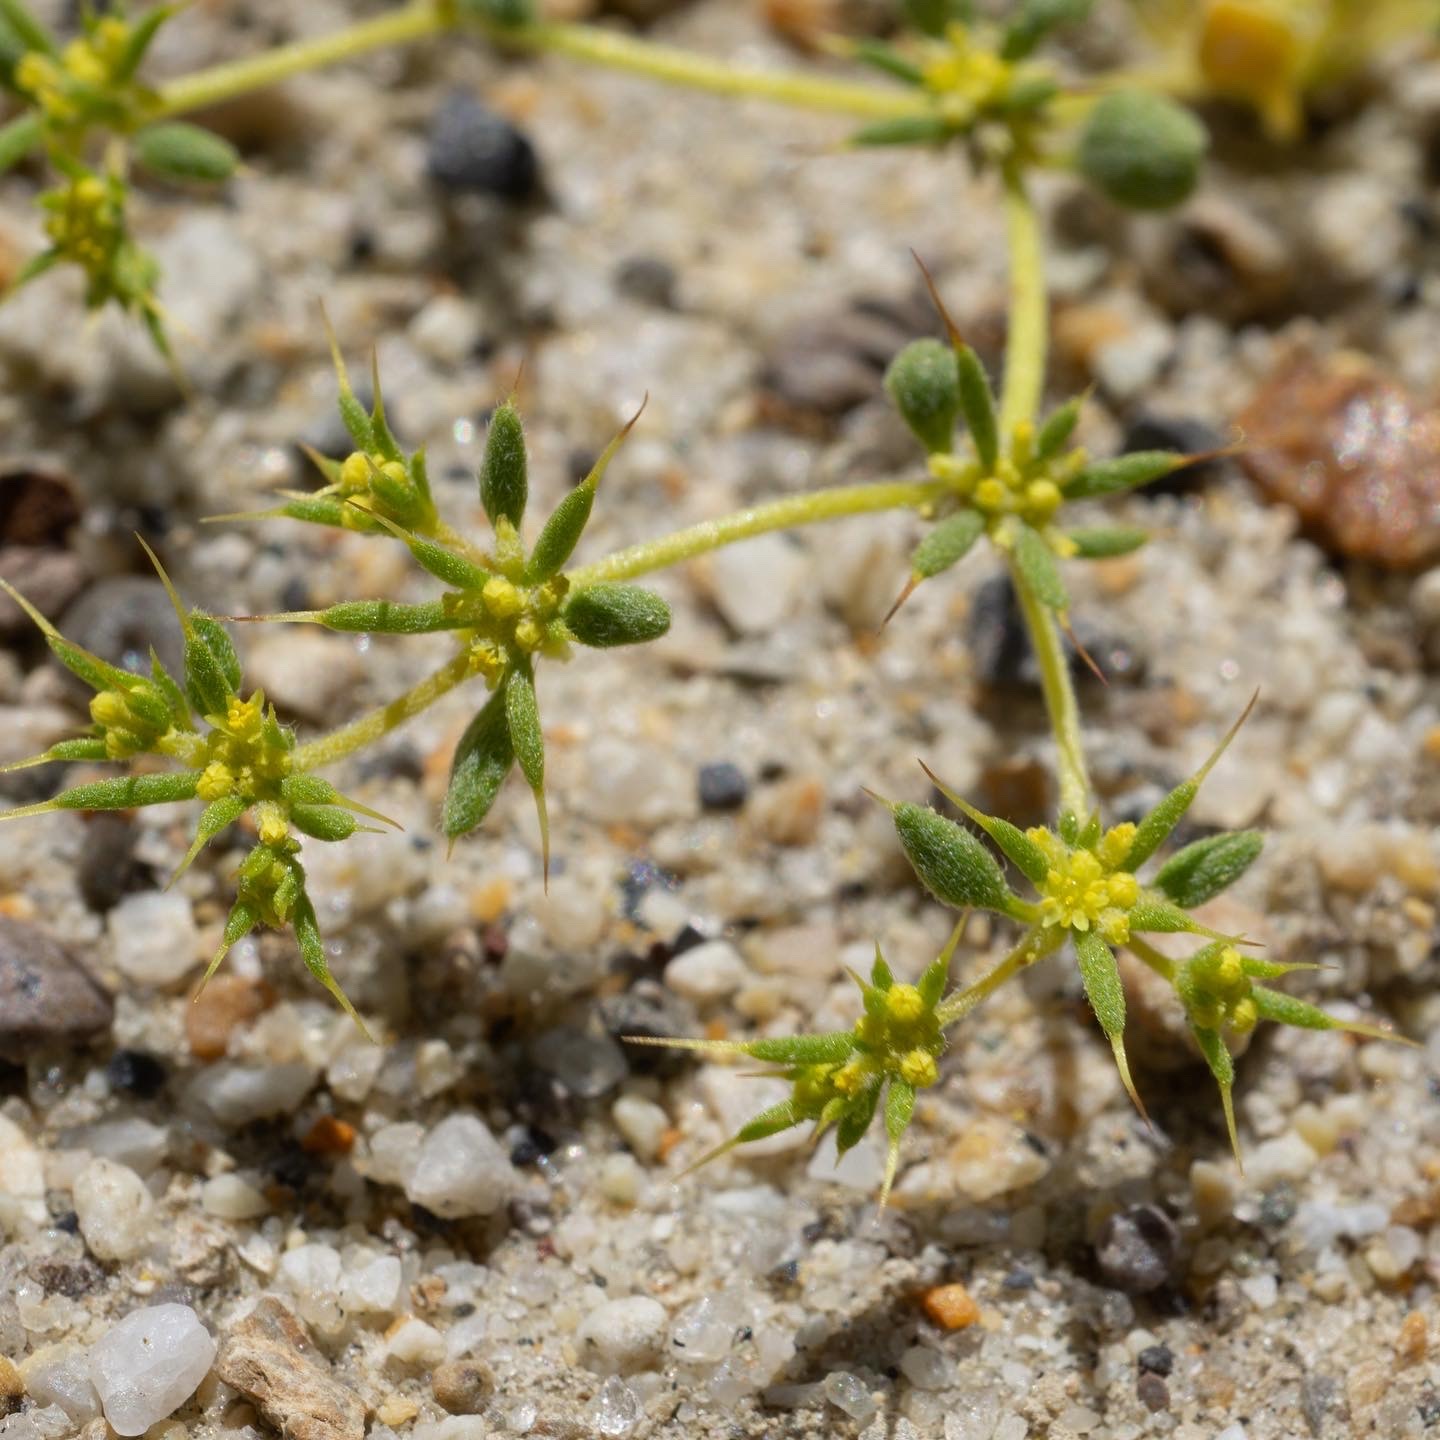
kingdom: Plantae
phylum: Tracheophyta
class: Magnoliopsida
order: Caryophyllales
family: Polygonaceae
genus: Goodmania
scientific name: Goodmania luteola
